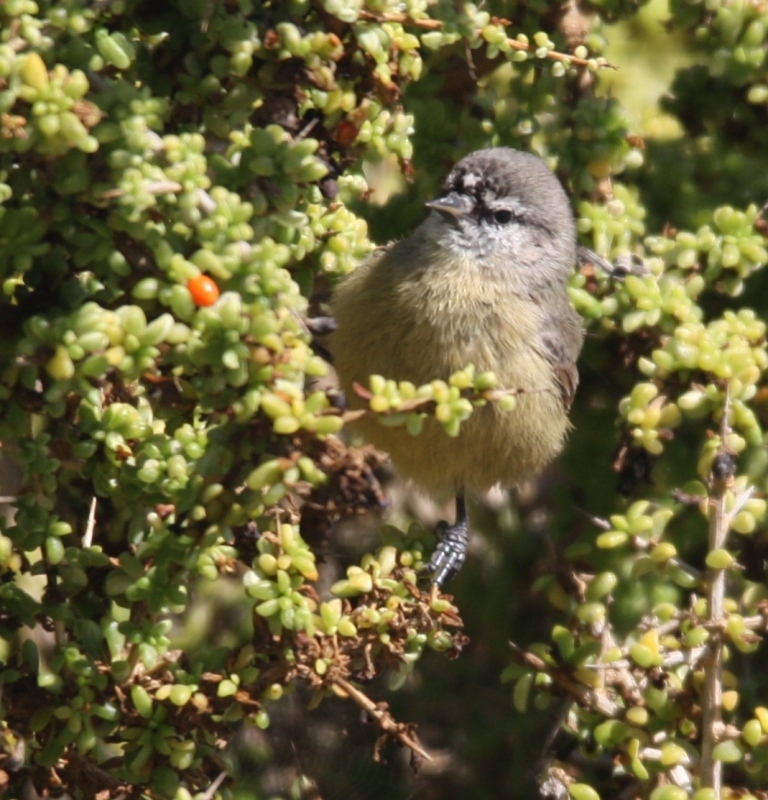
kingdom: Animalia
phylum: Chordata
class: Aves
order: Passeriformes
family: Remizidae
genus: Anthoscopus
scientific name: Anthoscopus minutus
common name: Cape penduline tit
